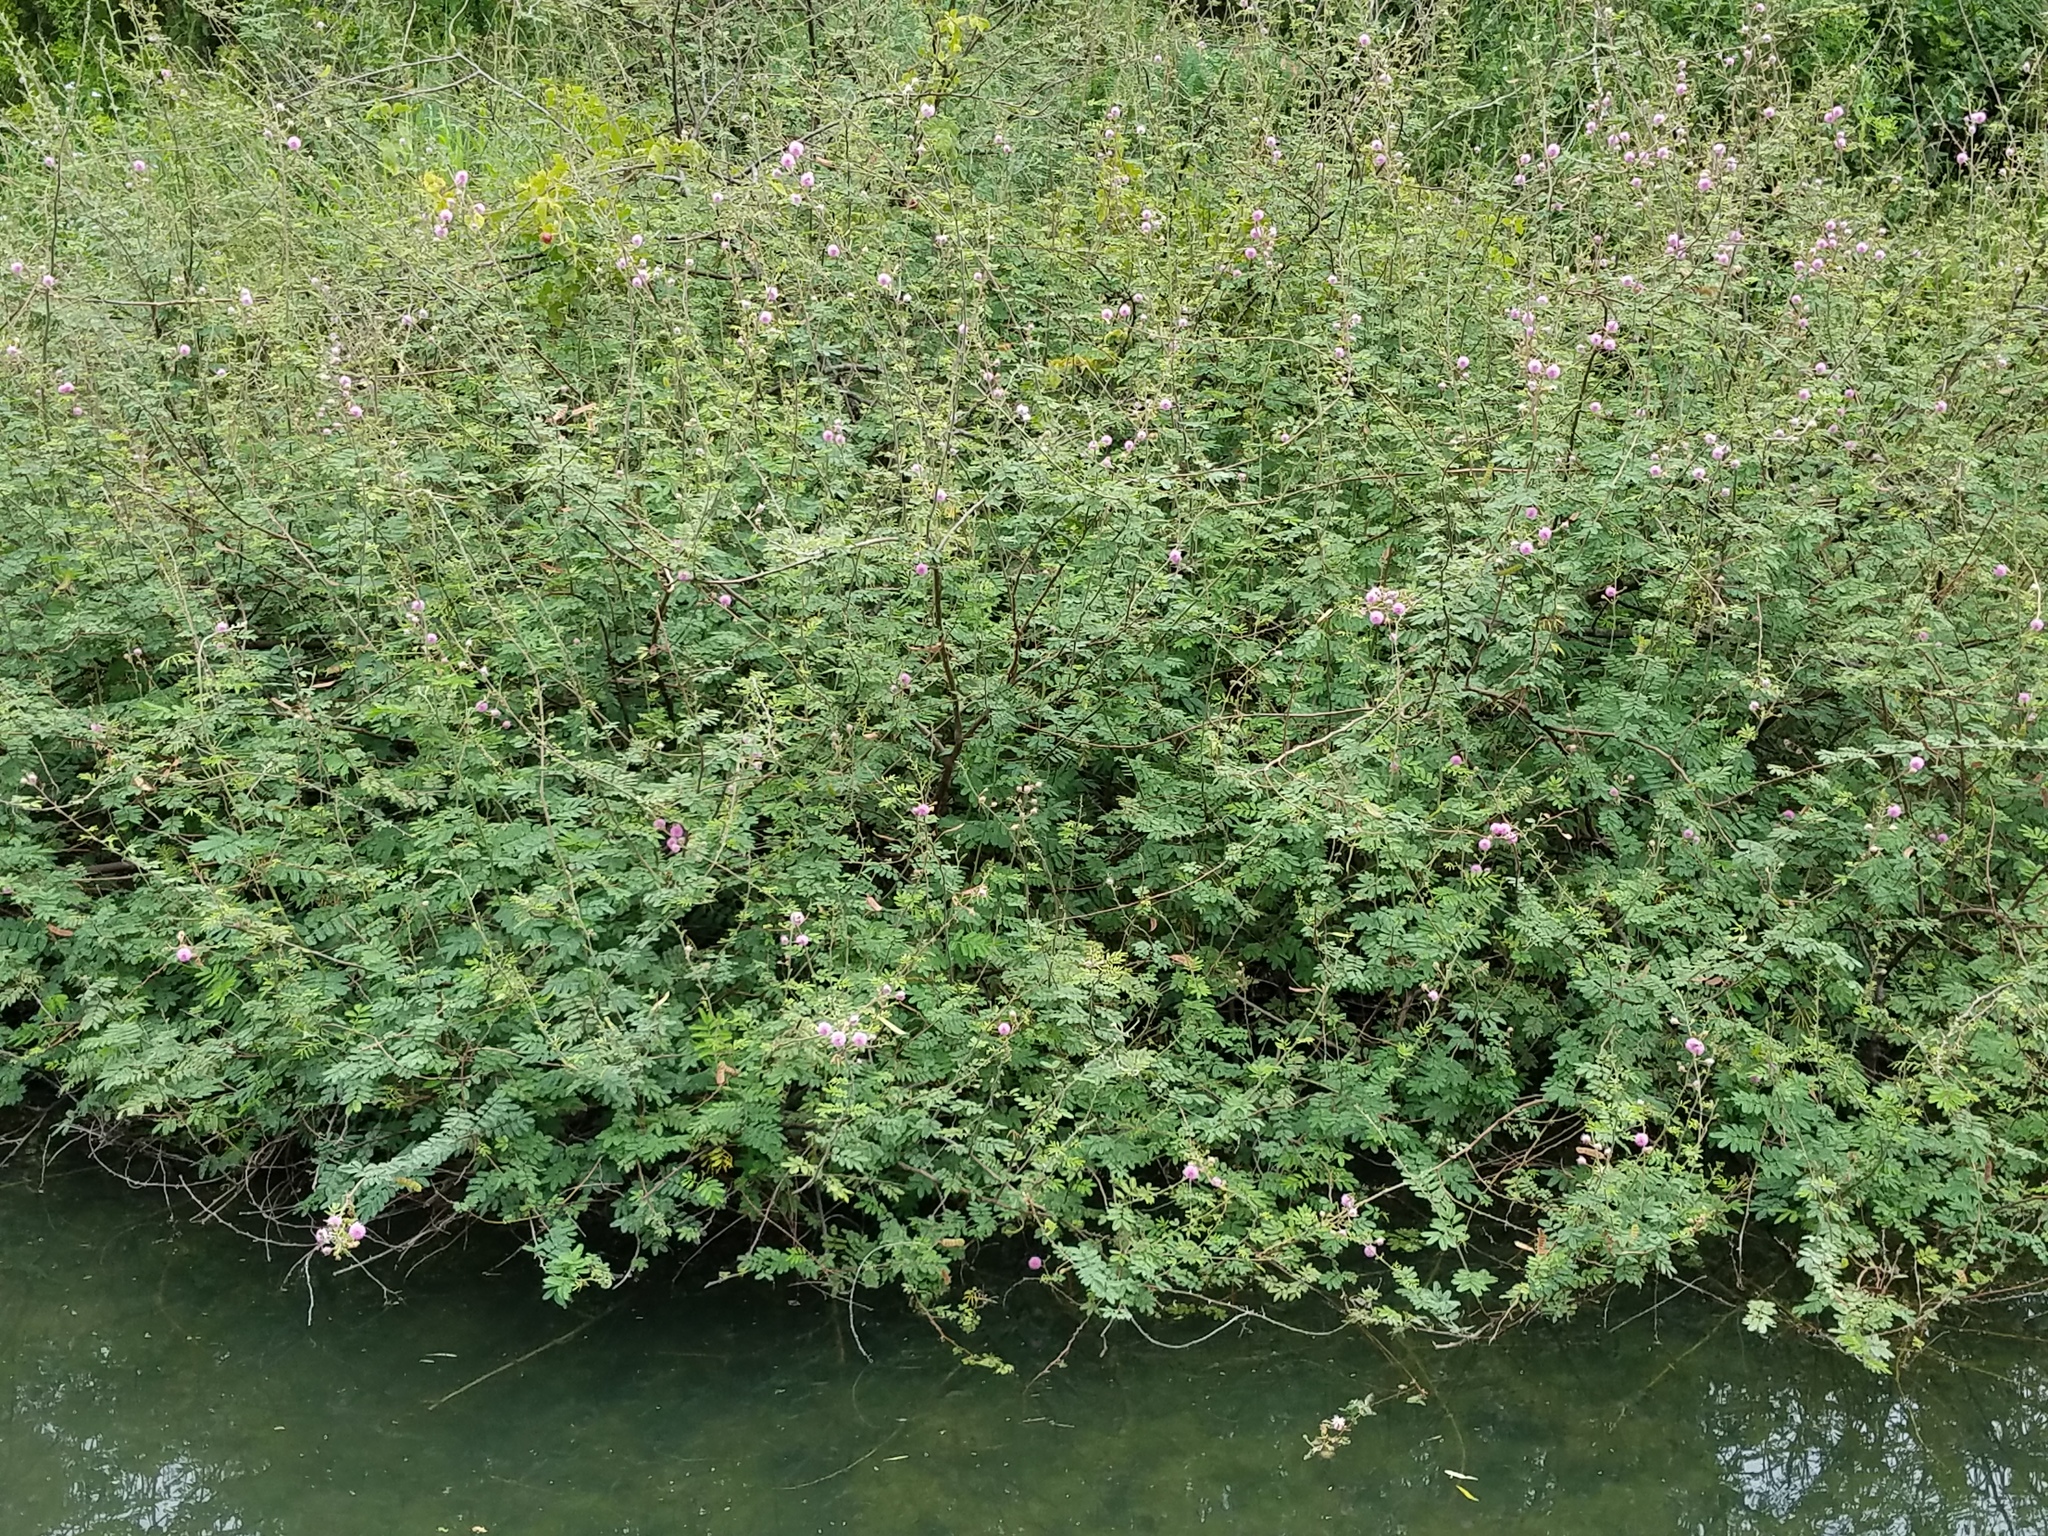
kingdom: Plantae
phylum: Tracheophyta
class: Magnoliopsida
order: Fabales
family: Fabaceae
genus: Mimosa
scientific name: Mimosa pigra
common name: Black mimosa
